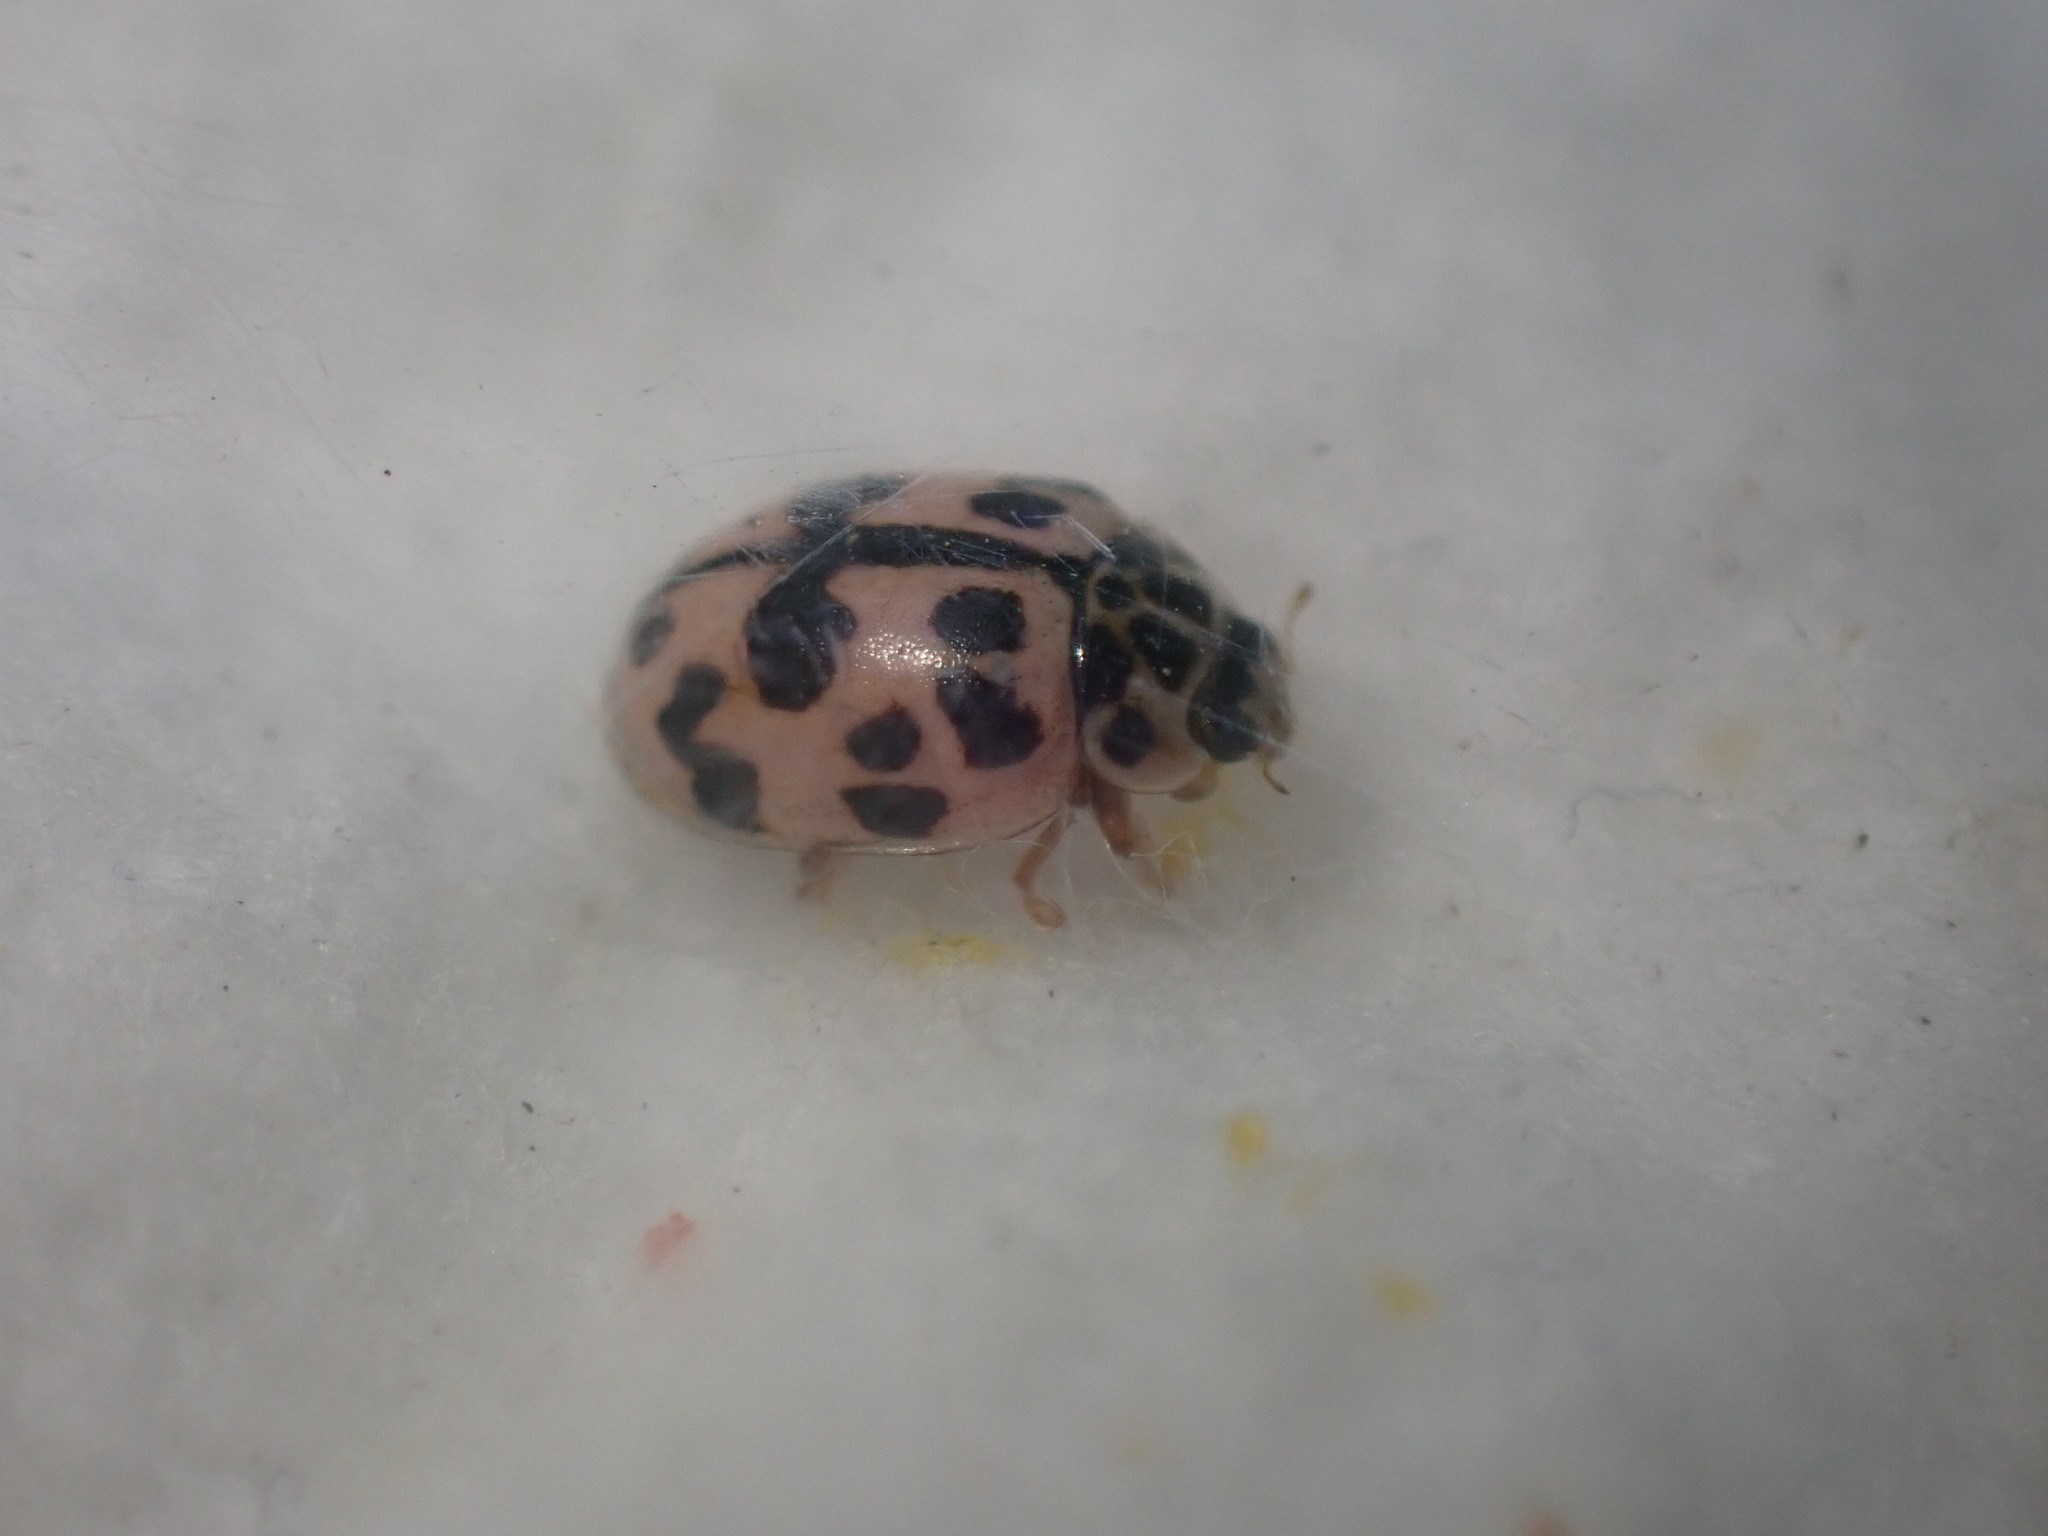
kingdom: Animalia
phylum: Arthropoda
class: Insecta
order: Coleoptera
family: Coccinellidae
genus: Oenopia
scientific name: Oenopia conglobata
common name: Ladybird beetle
